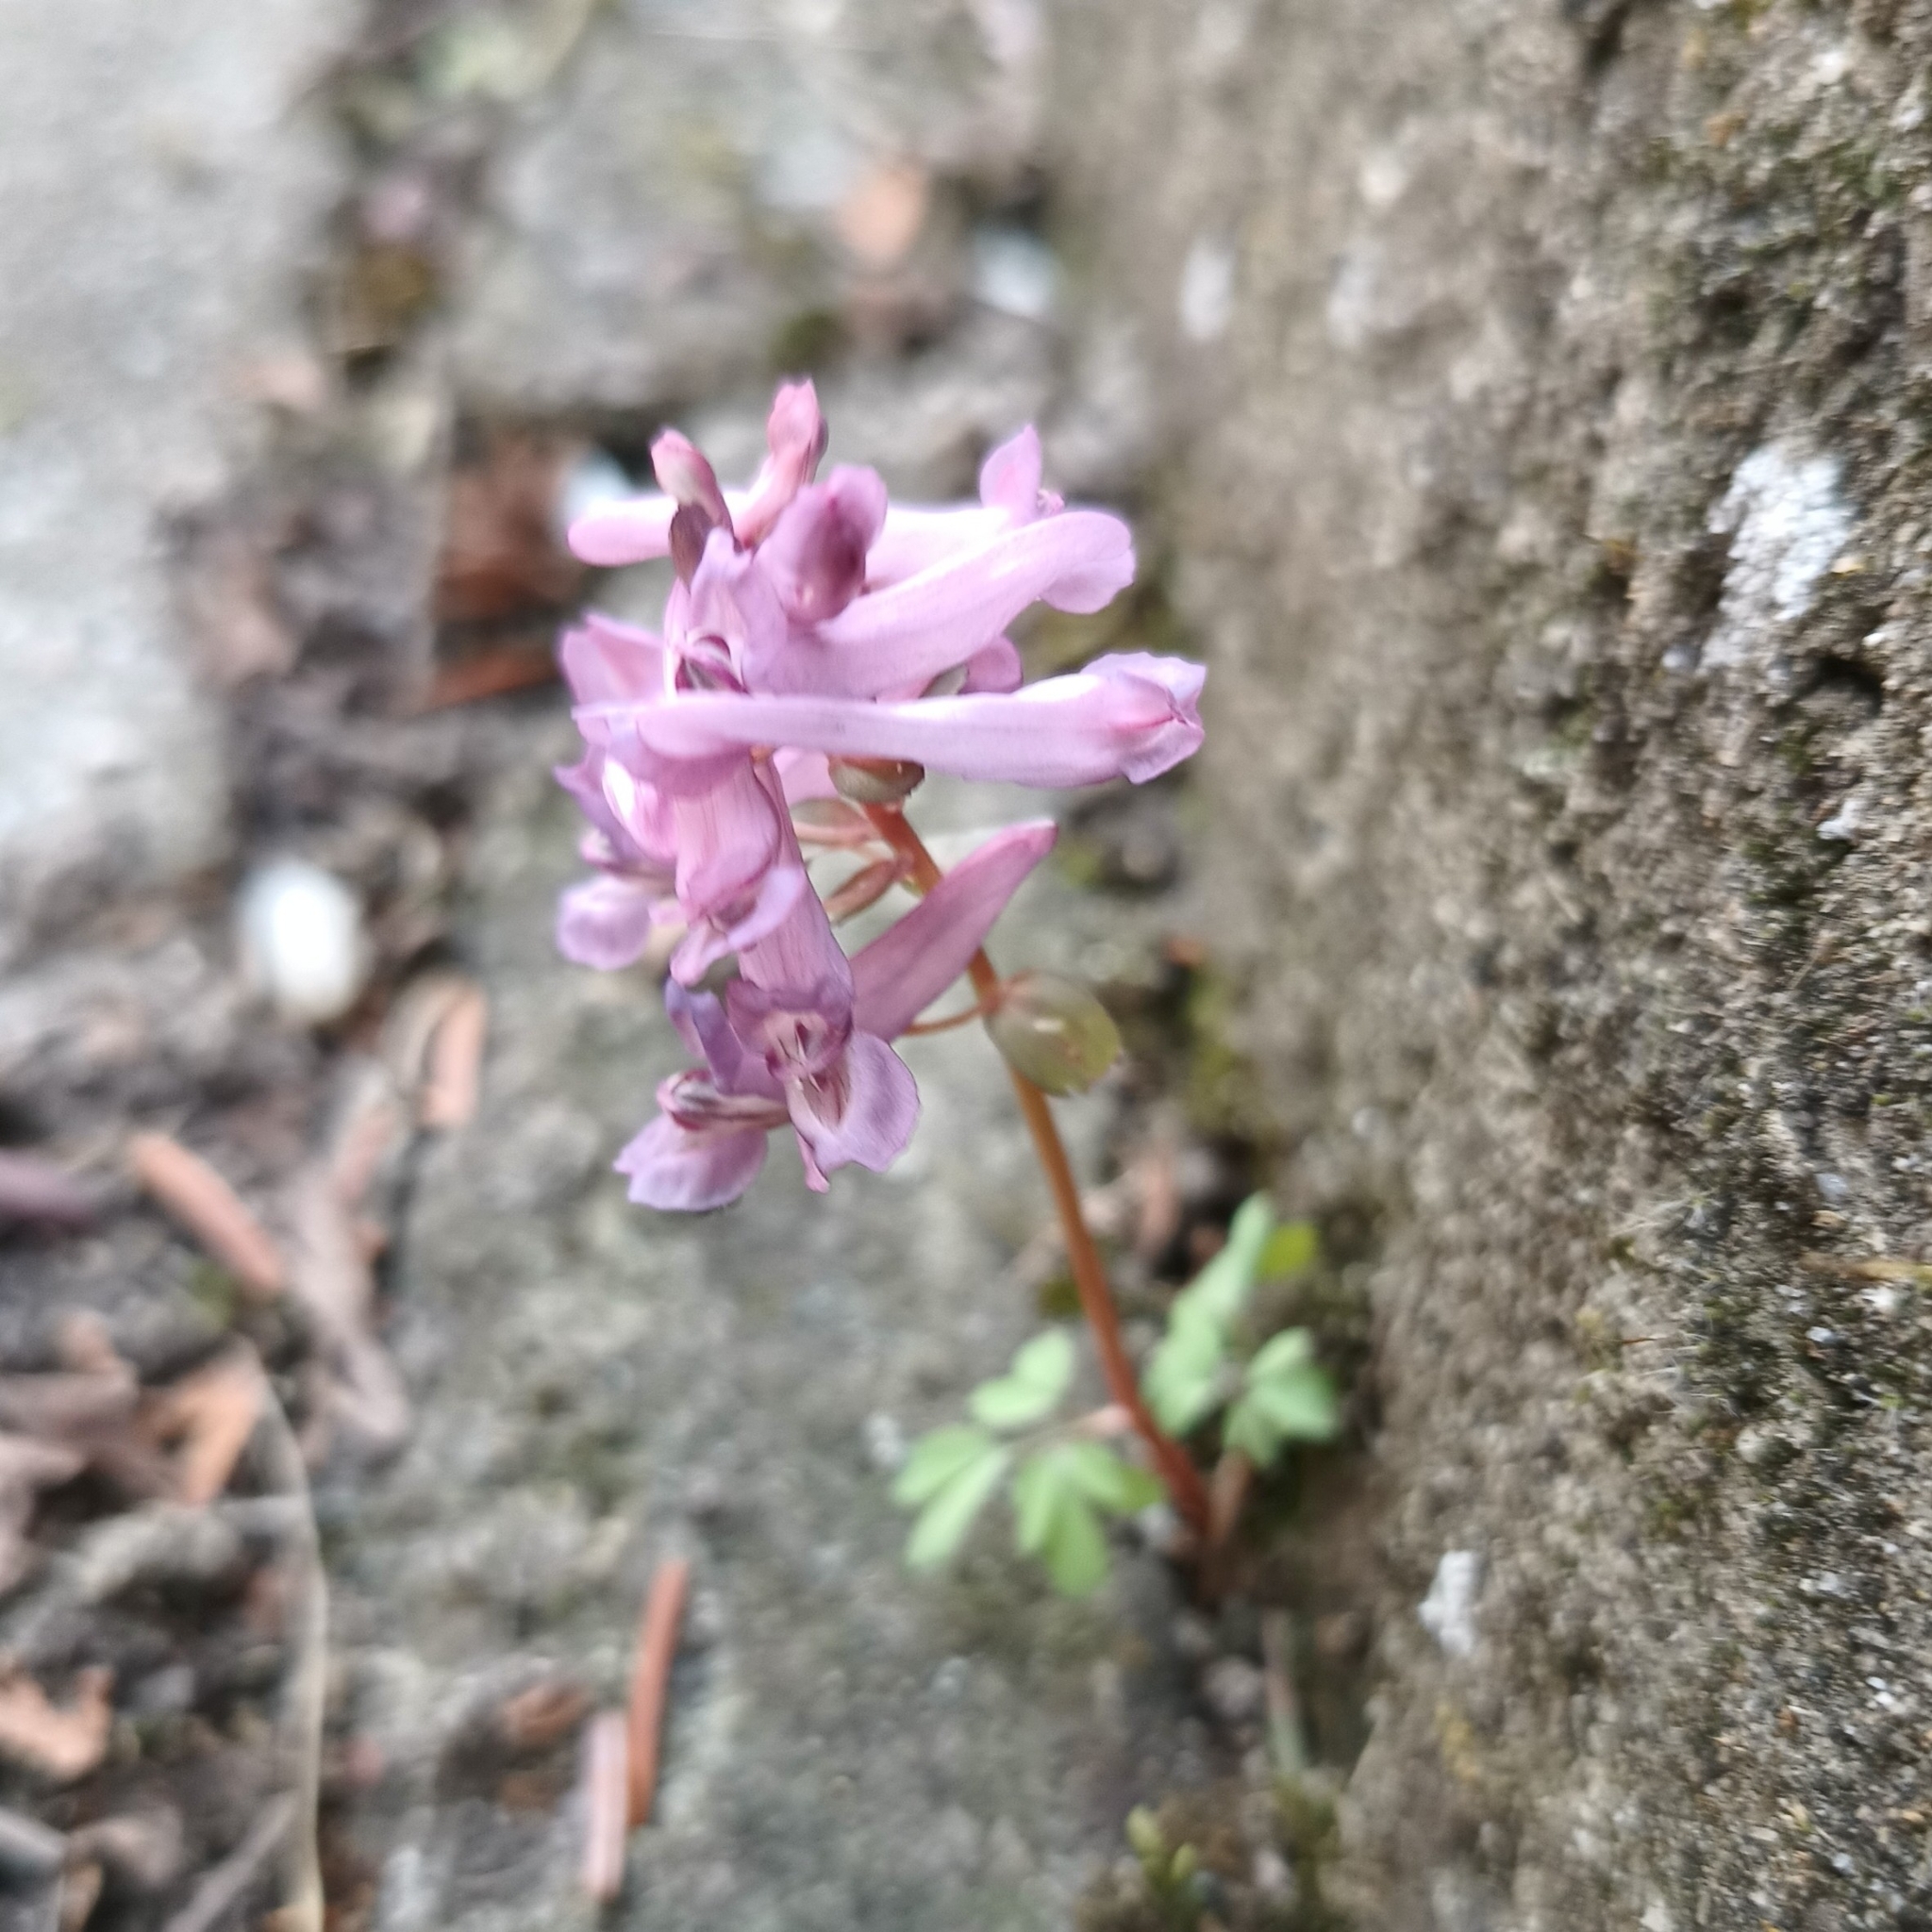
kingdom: Plantae
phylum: Tracheophyta
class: Magnoliopsida
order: Ranunculales
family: Papaveraceae
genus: Corydalis
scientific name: Corydalis solida
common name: Bird-in-a-bush
